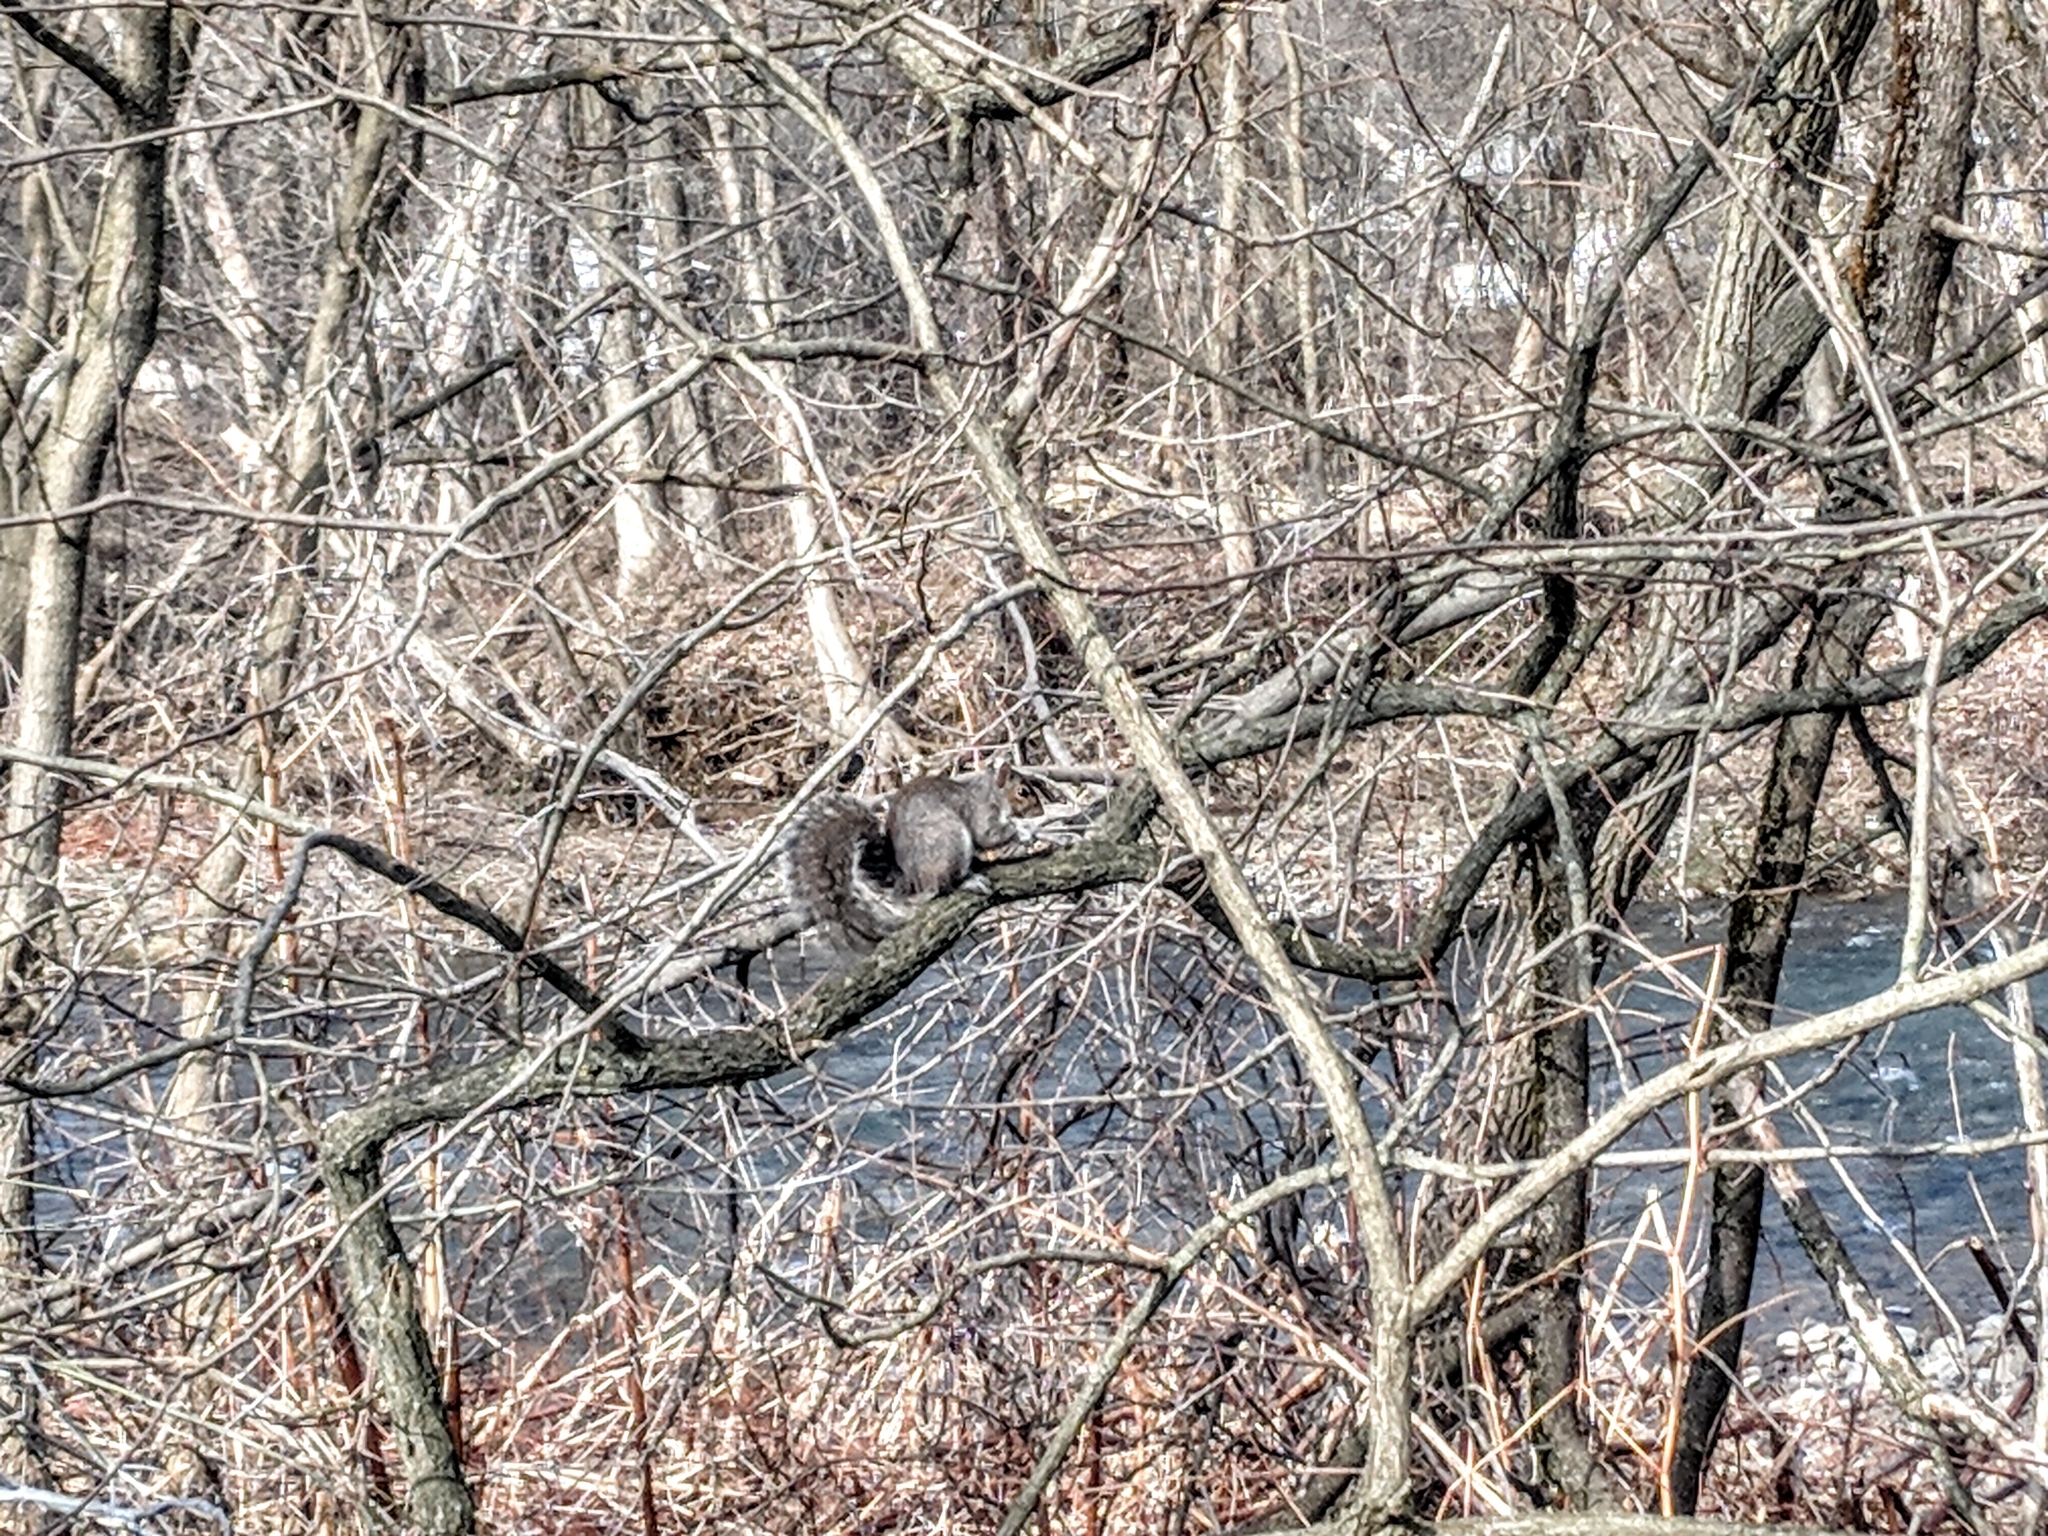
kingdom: Animalia
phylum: Chordata
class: Mammalia
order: Rodentia
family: Sciuridae
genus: Sciurus
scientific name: Sciurus carolinensis
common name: Eastern gray squirrel
